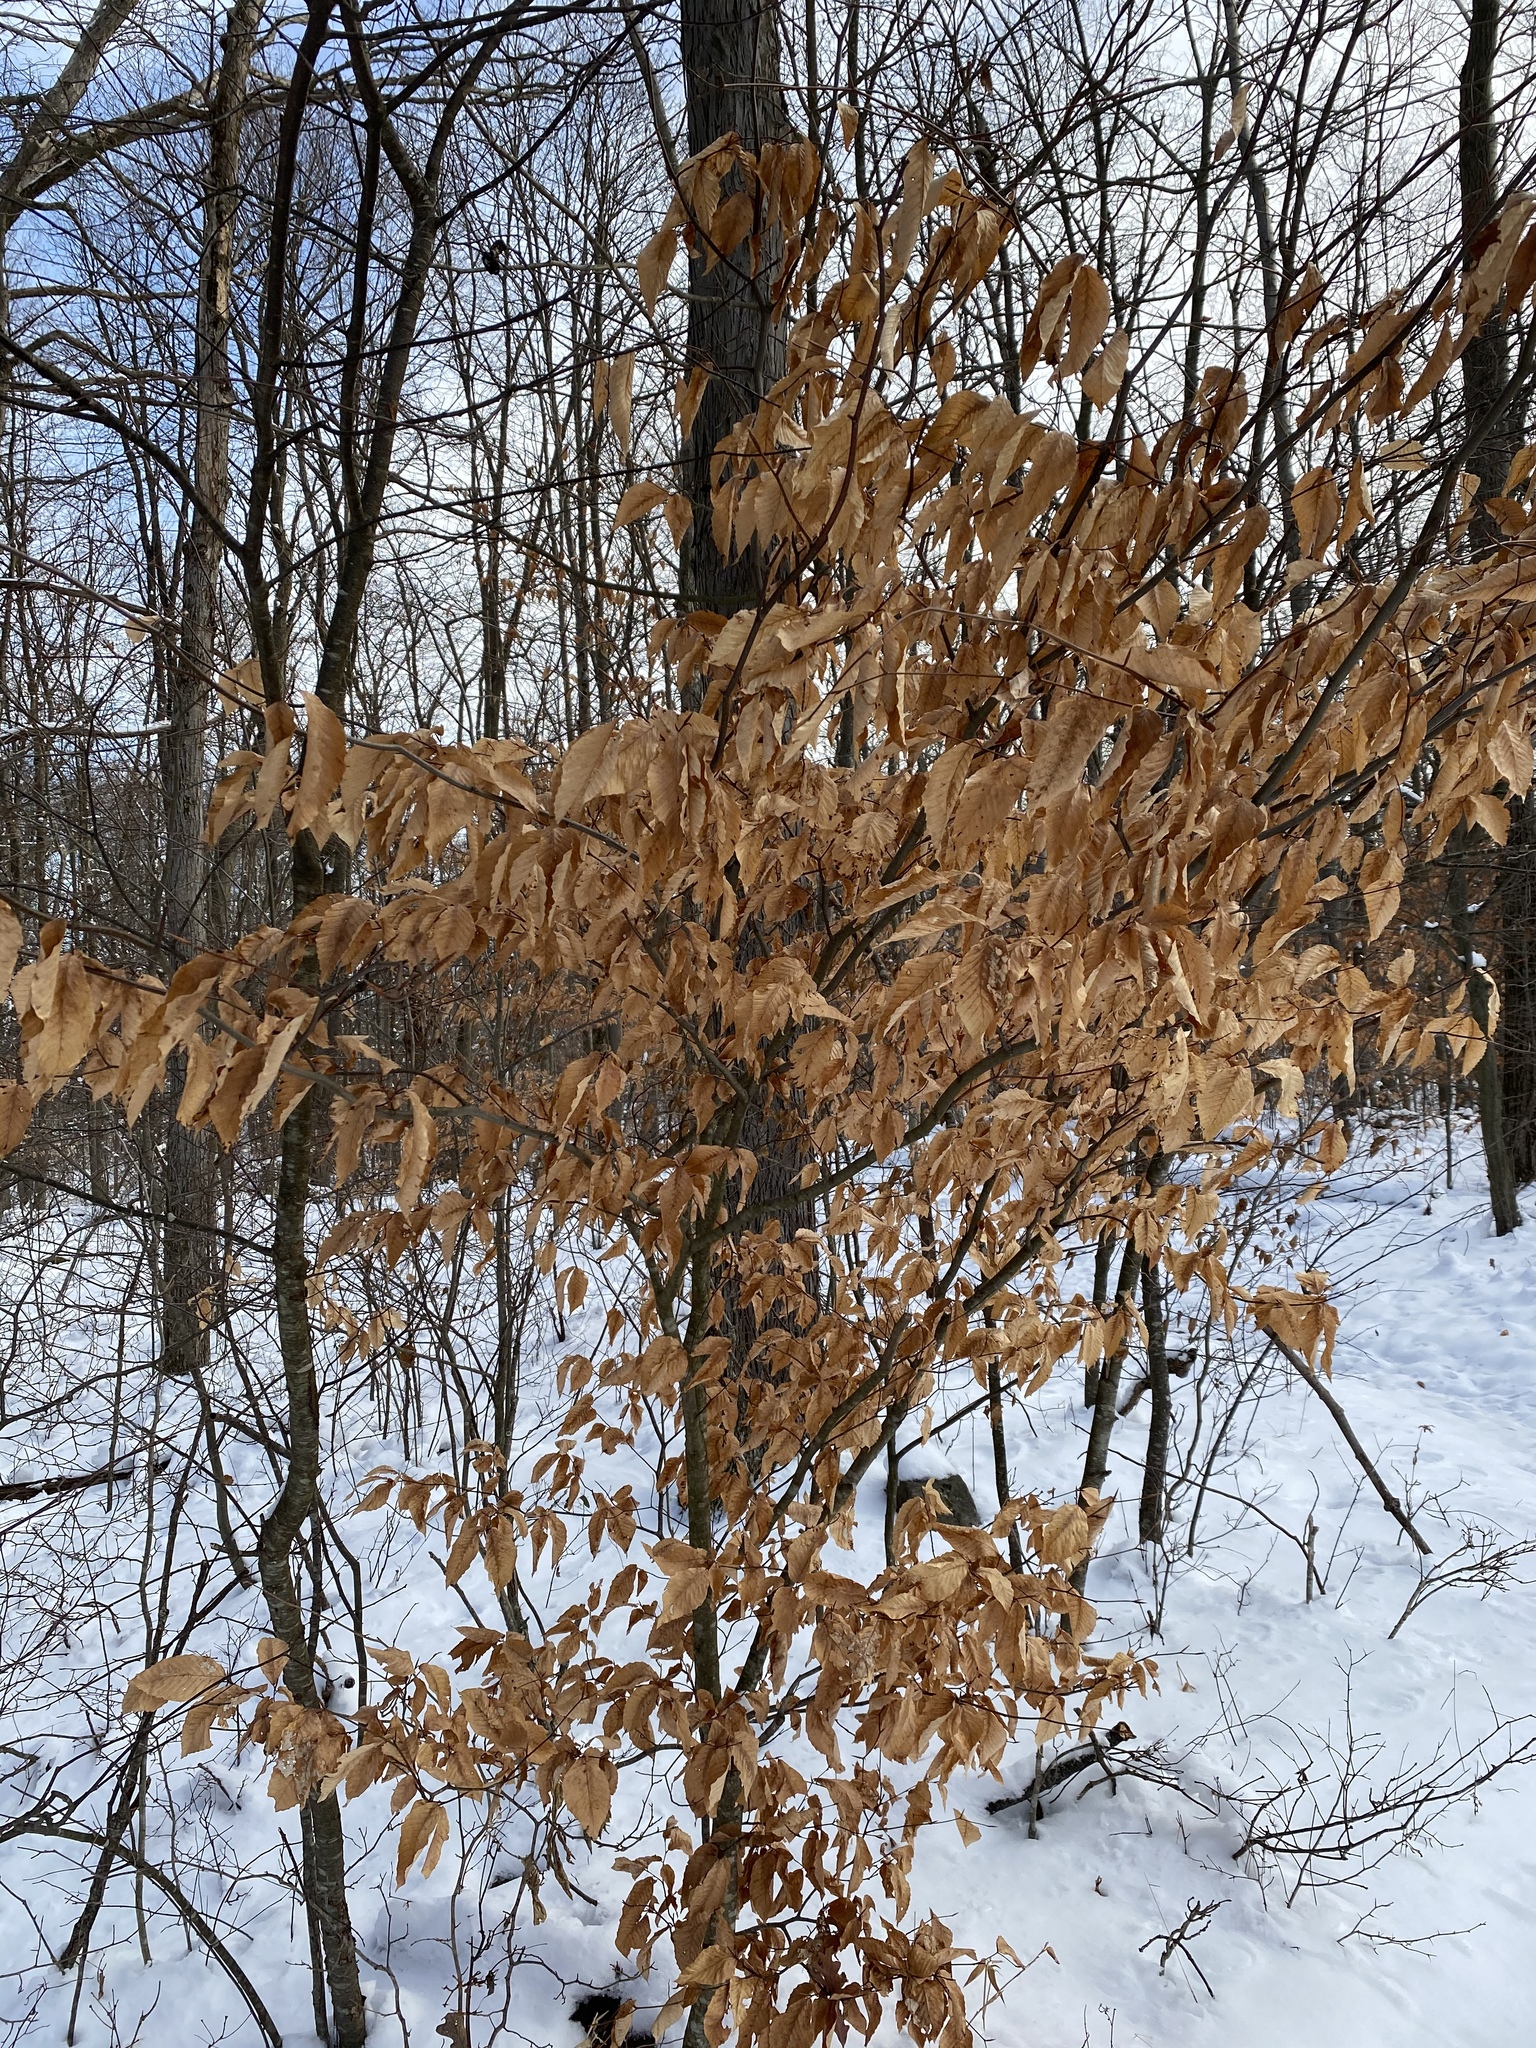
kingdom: Plantae
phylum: Tracheophyta
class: Magnoliopsida
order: Fagales
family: Fagaceae
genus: Fagus
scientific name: Fagus grandifolia
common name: American beech
